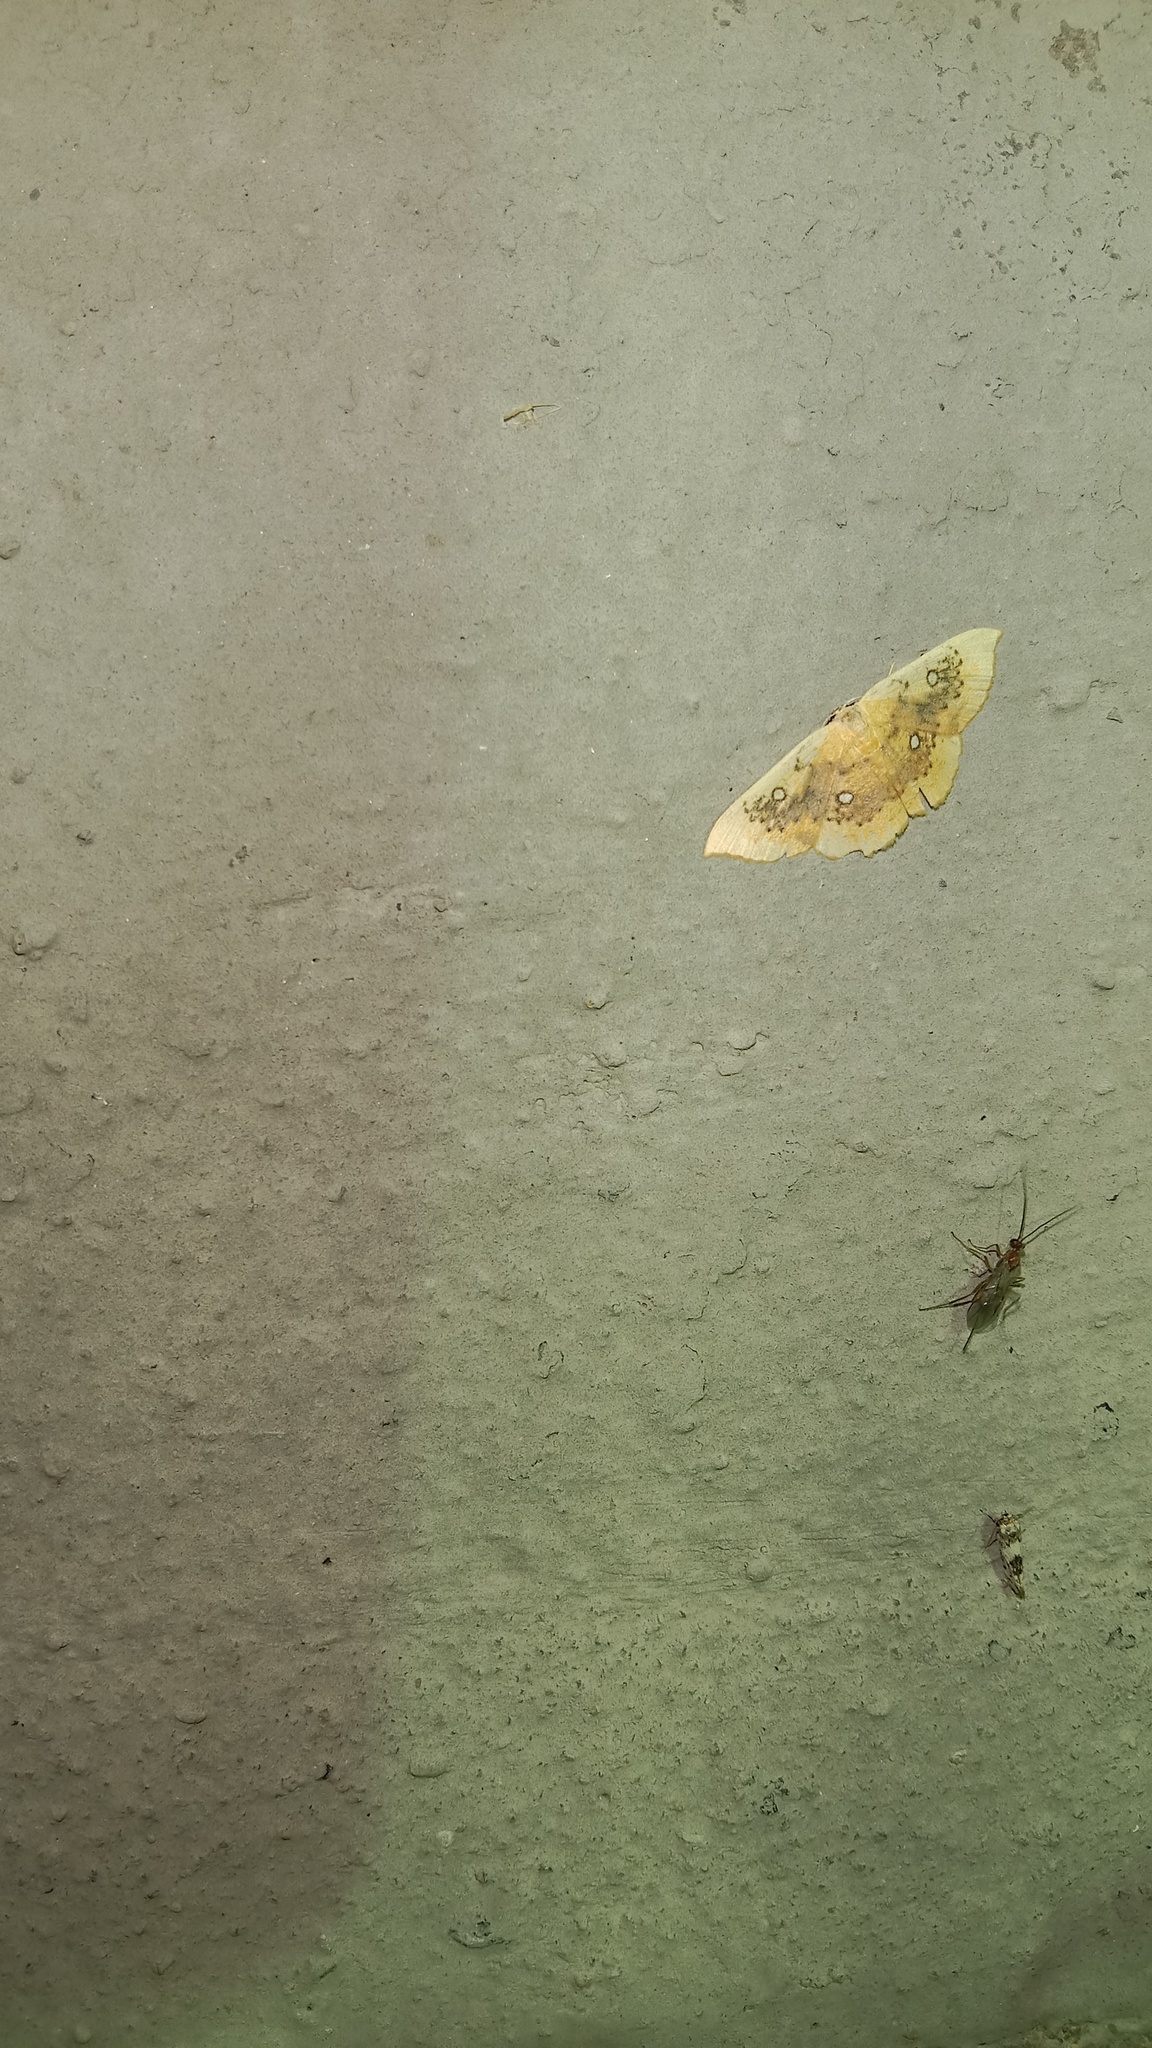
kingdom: Animalia
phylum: Arthropoda
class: Insecta
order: Lepidoptera
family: Geometridae
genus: Cyclophora
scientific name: Cyclophora albiocellaria
